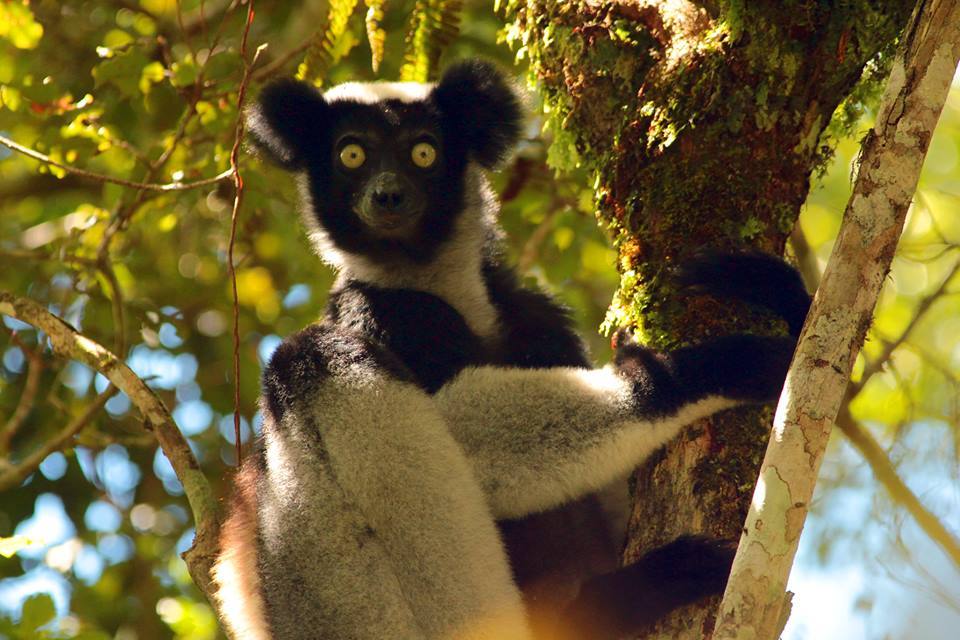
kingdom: Animalia
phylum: Chordata
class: Mammalia
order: Primates
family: Indriidae
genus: Indri
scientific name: Indri indri
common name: Indri
